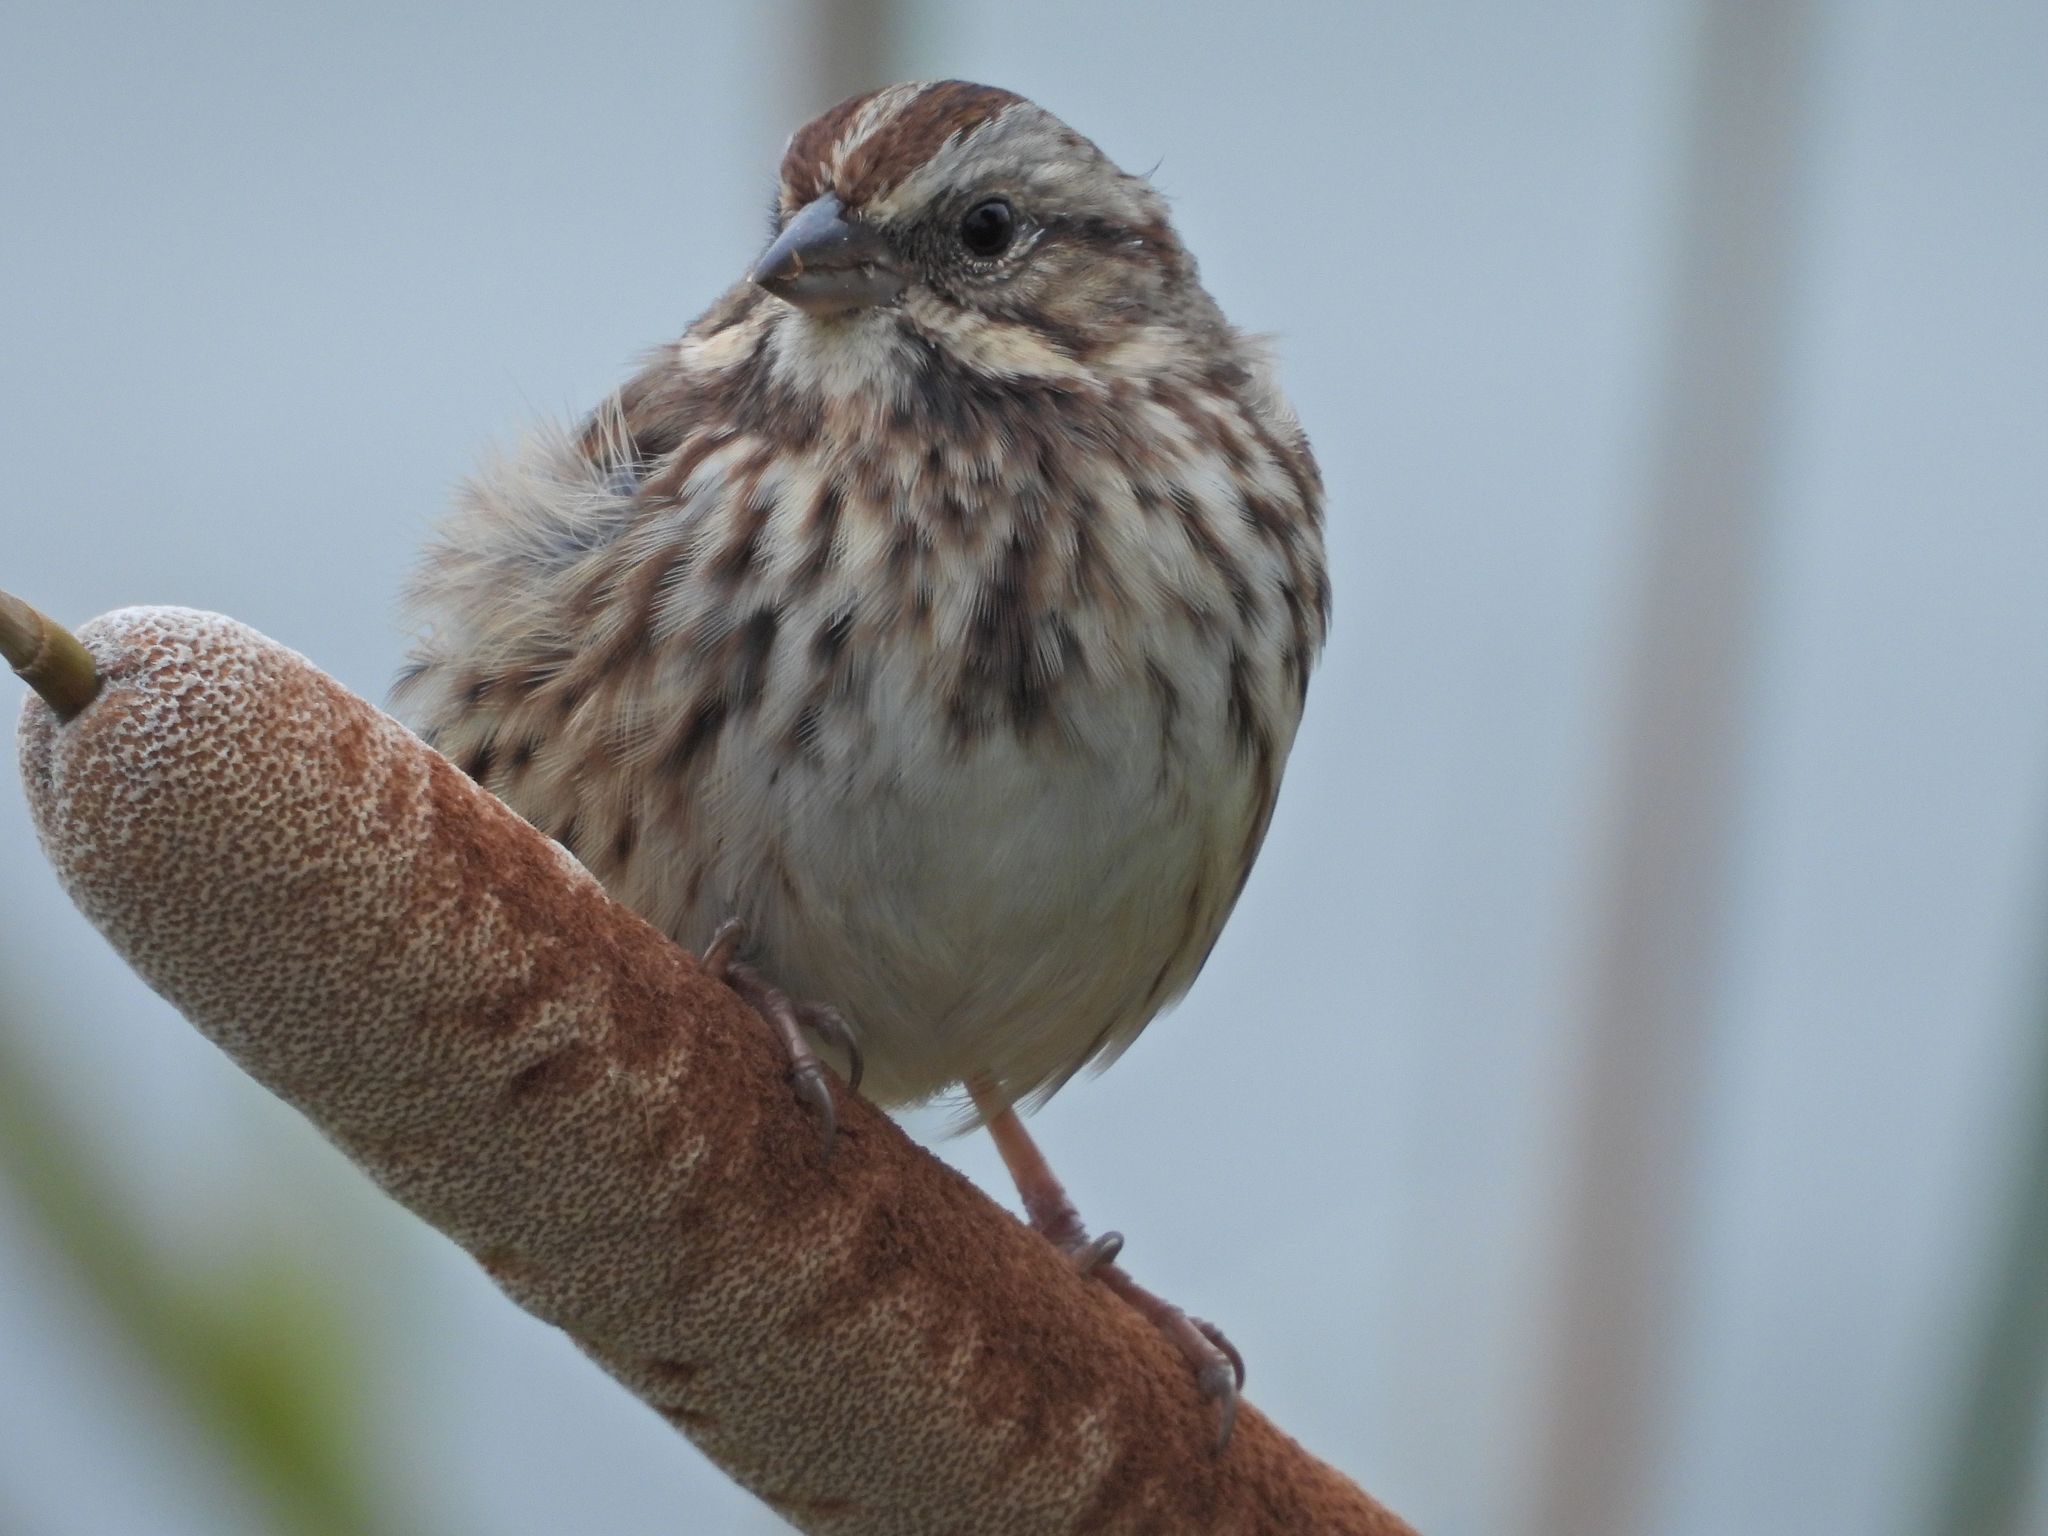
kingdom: Animalia
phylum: Chordata
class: Aves
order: Passeriformes
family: Passerellidae
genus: Melospiza
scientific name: Melospiza melodia
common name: Song sparrow
